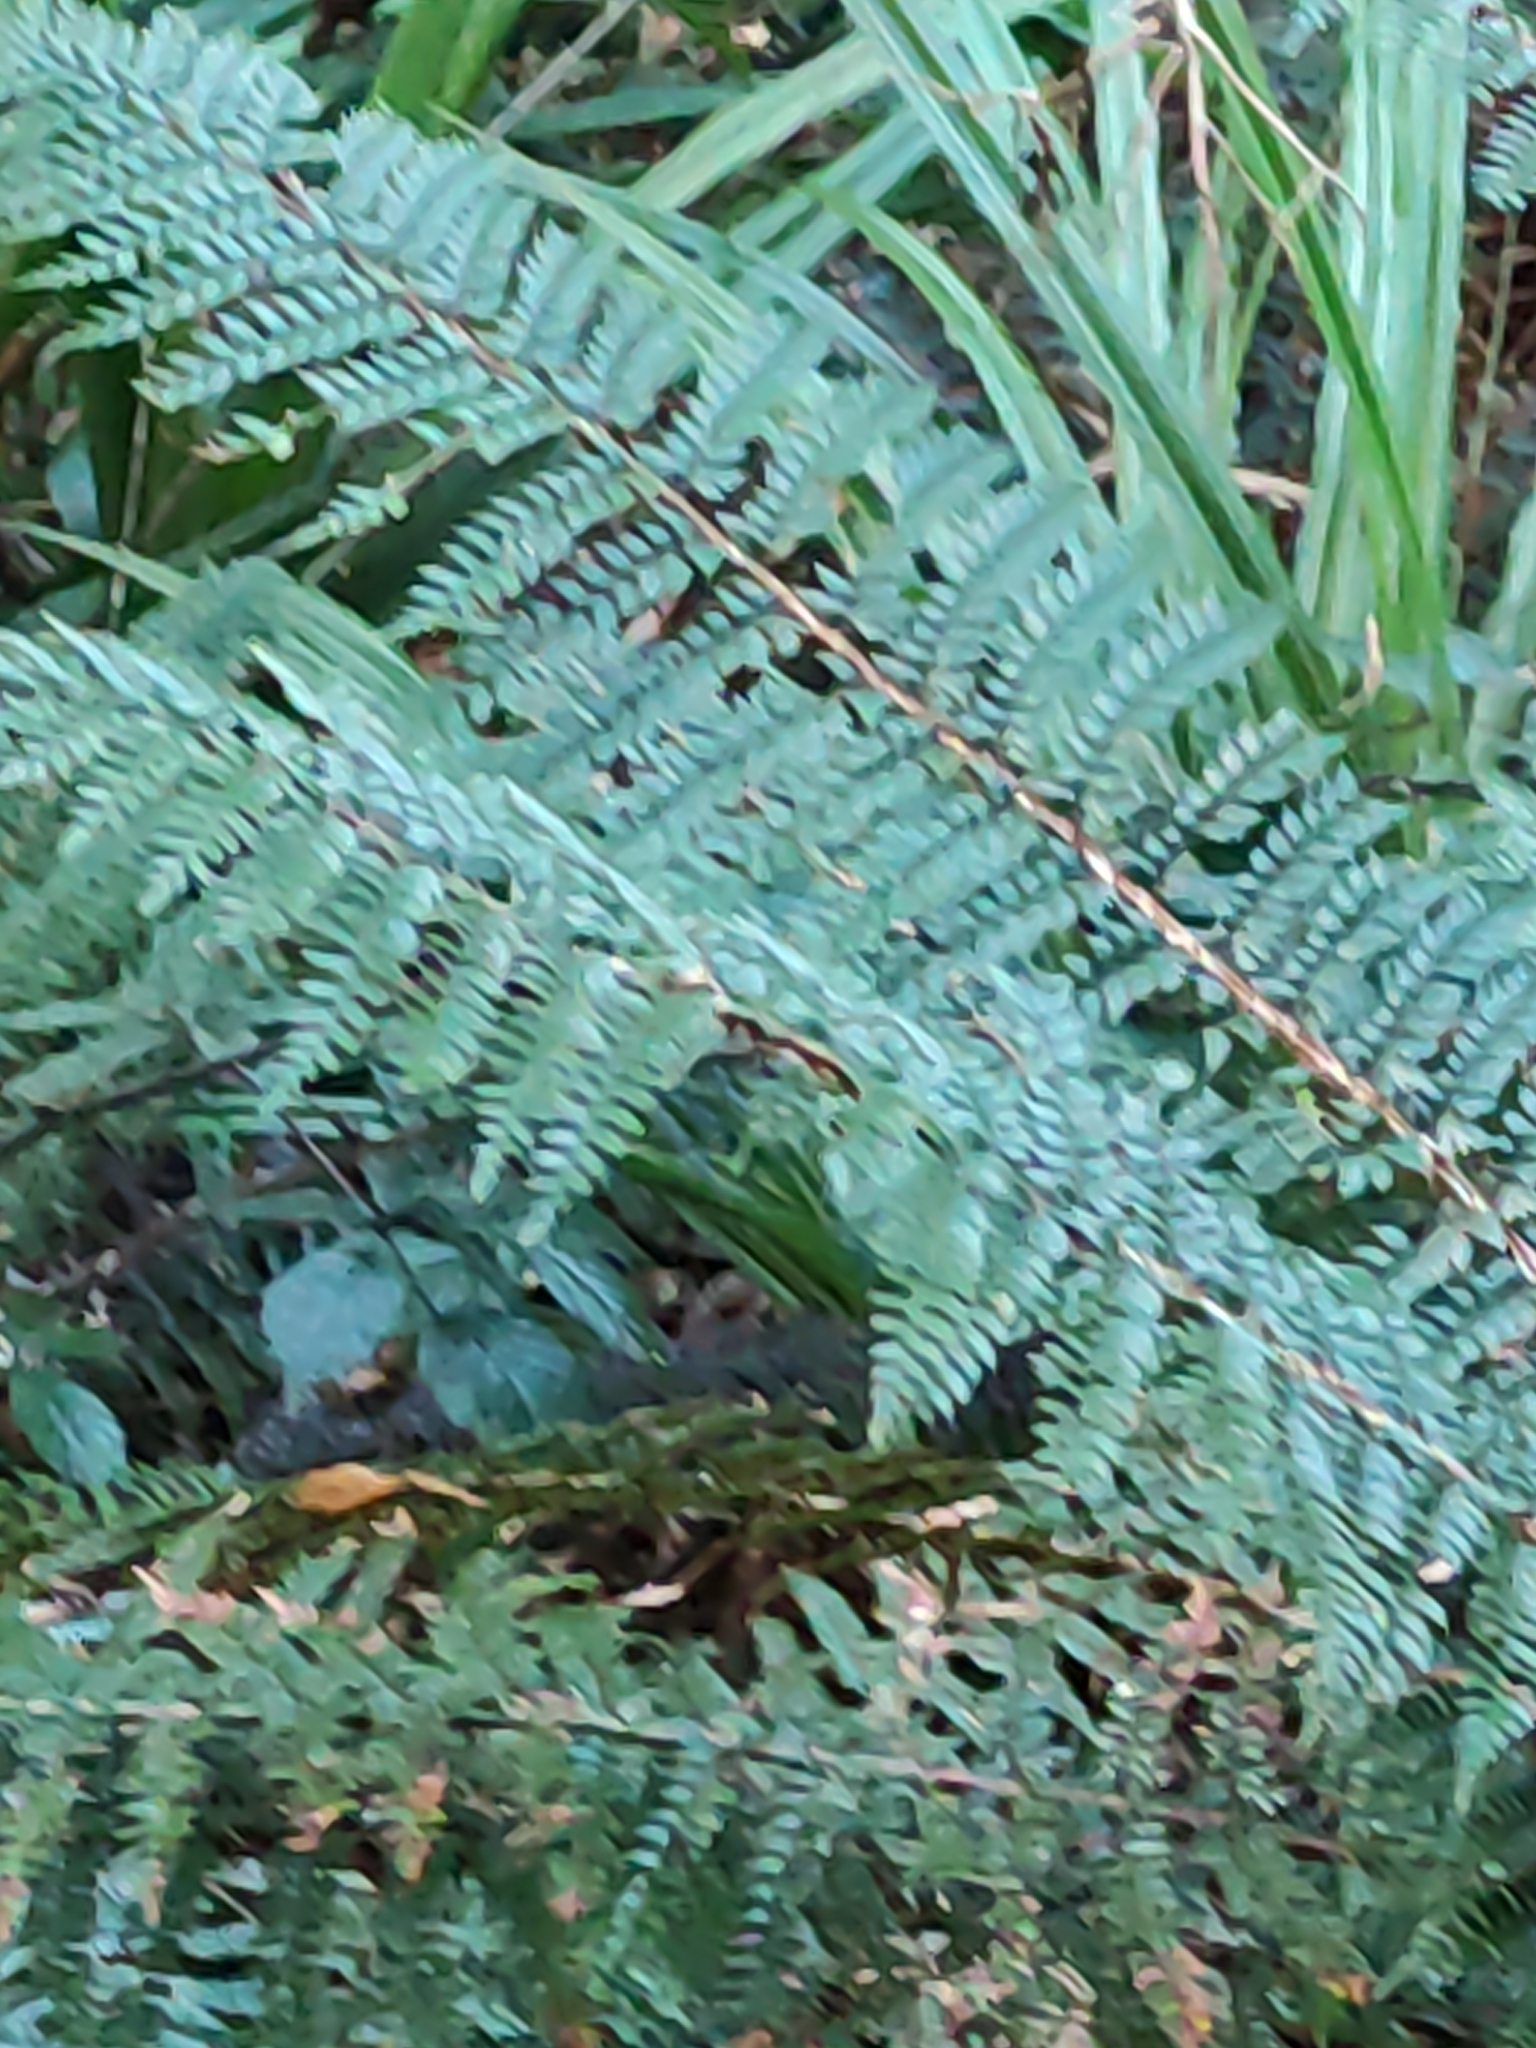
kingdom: Plantae
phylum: Tracheophyta
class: Polypodiopsida
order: Polypodiales
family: Dryopteridaceae
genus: Polystichum
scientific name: Polystichum vestitum
